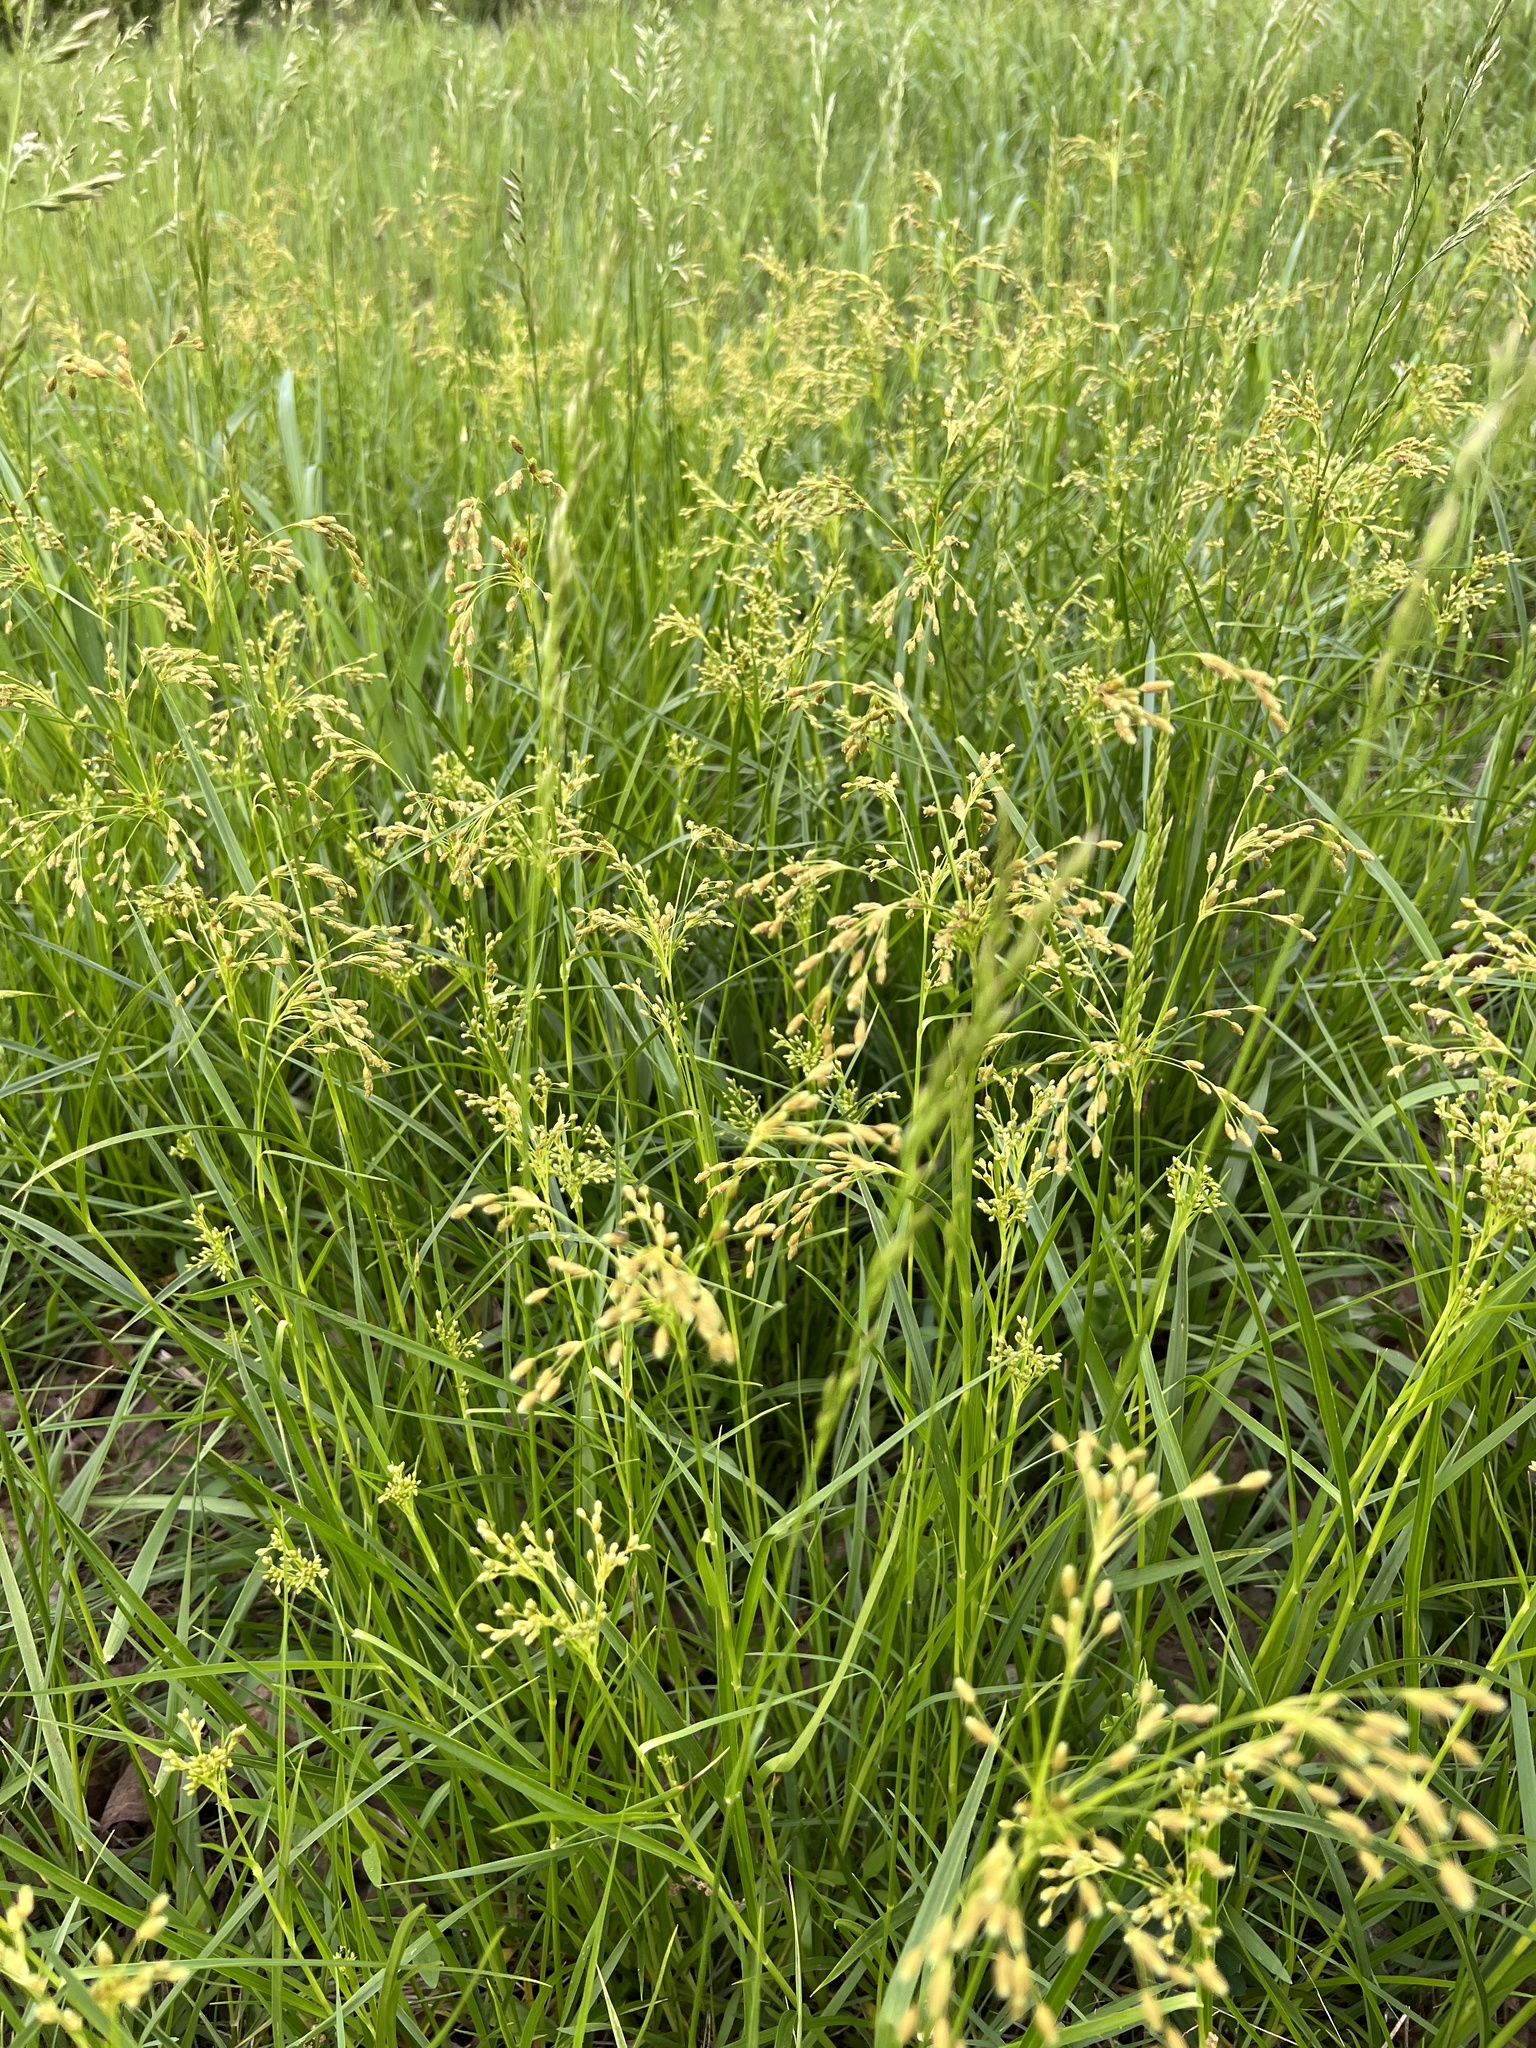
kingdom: Plantae
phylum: Tracheophyta
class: Liliopsida
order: Poales
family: Cyperaceae
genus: Scirpus
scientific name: Scirpus pendulus
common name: Nodding bulrush
